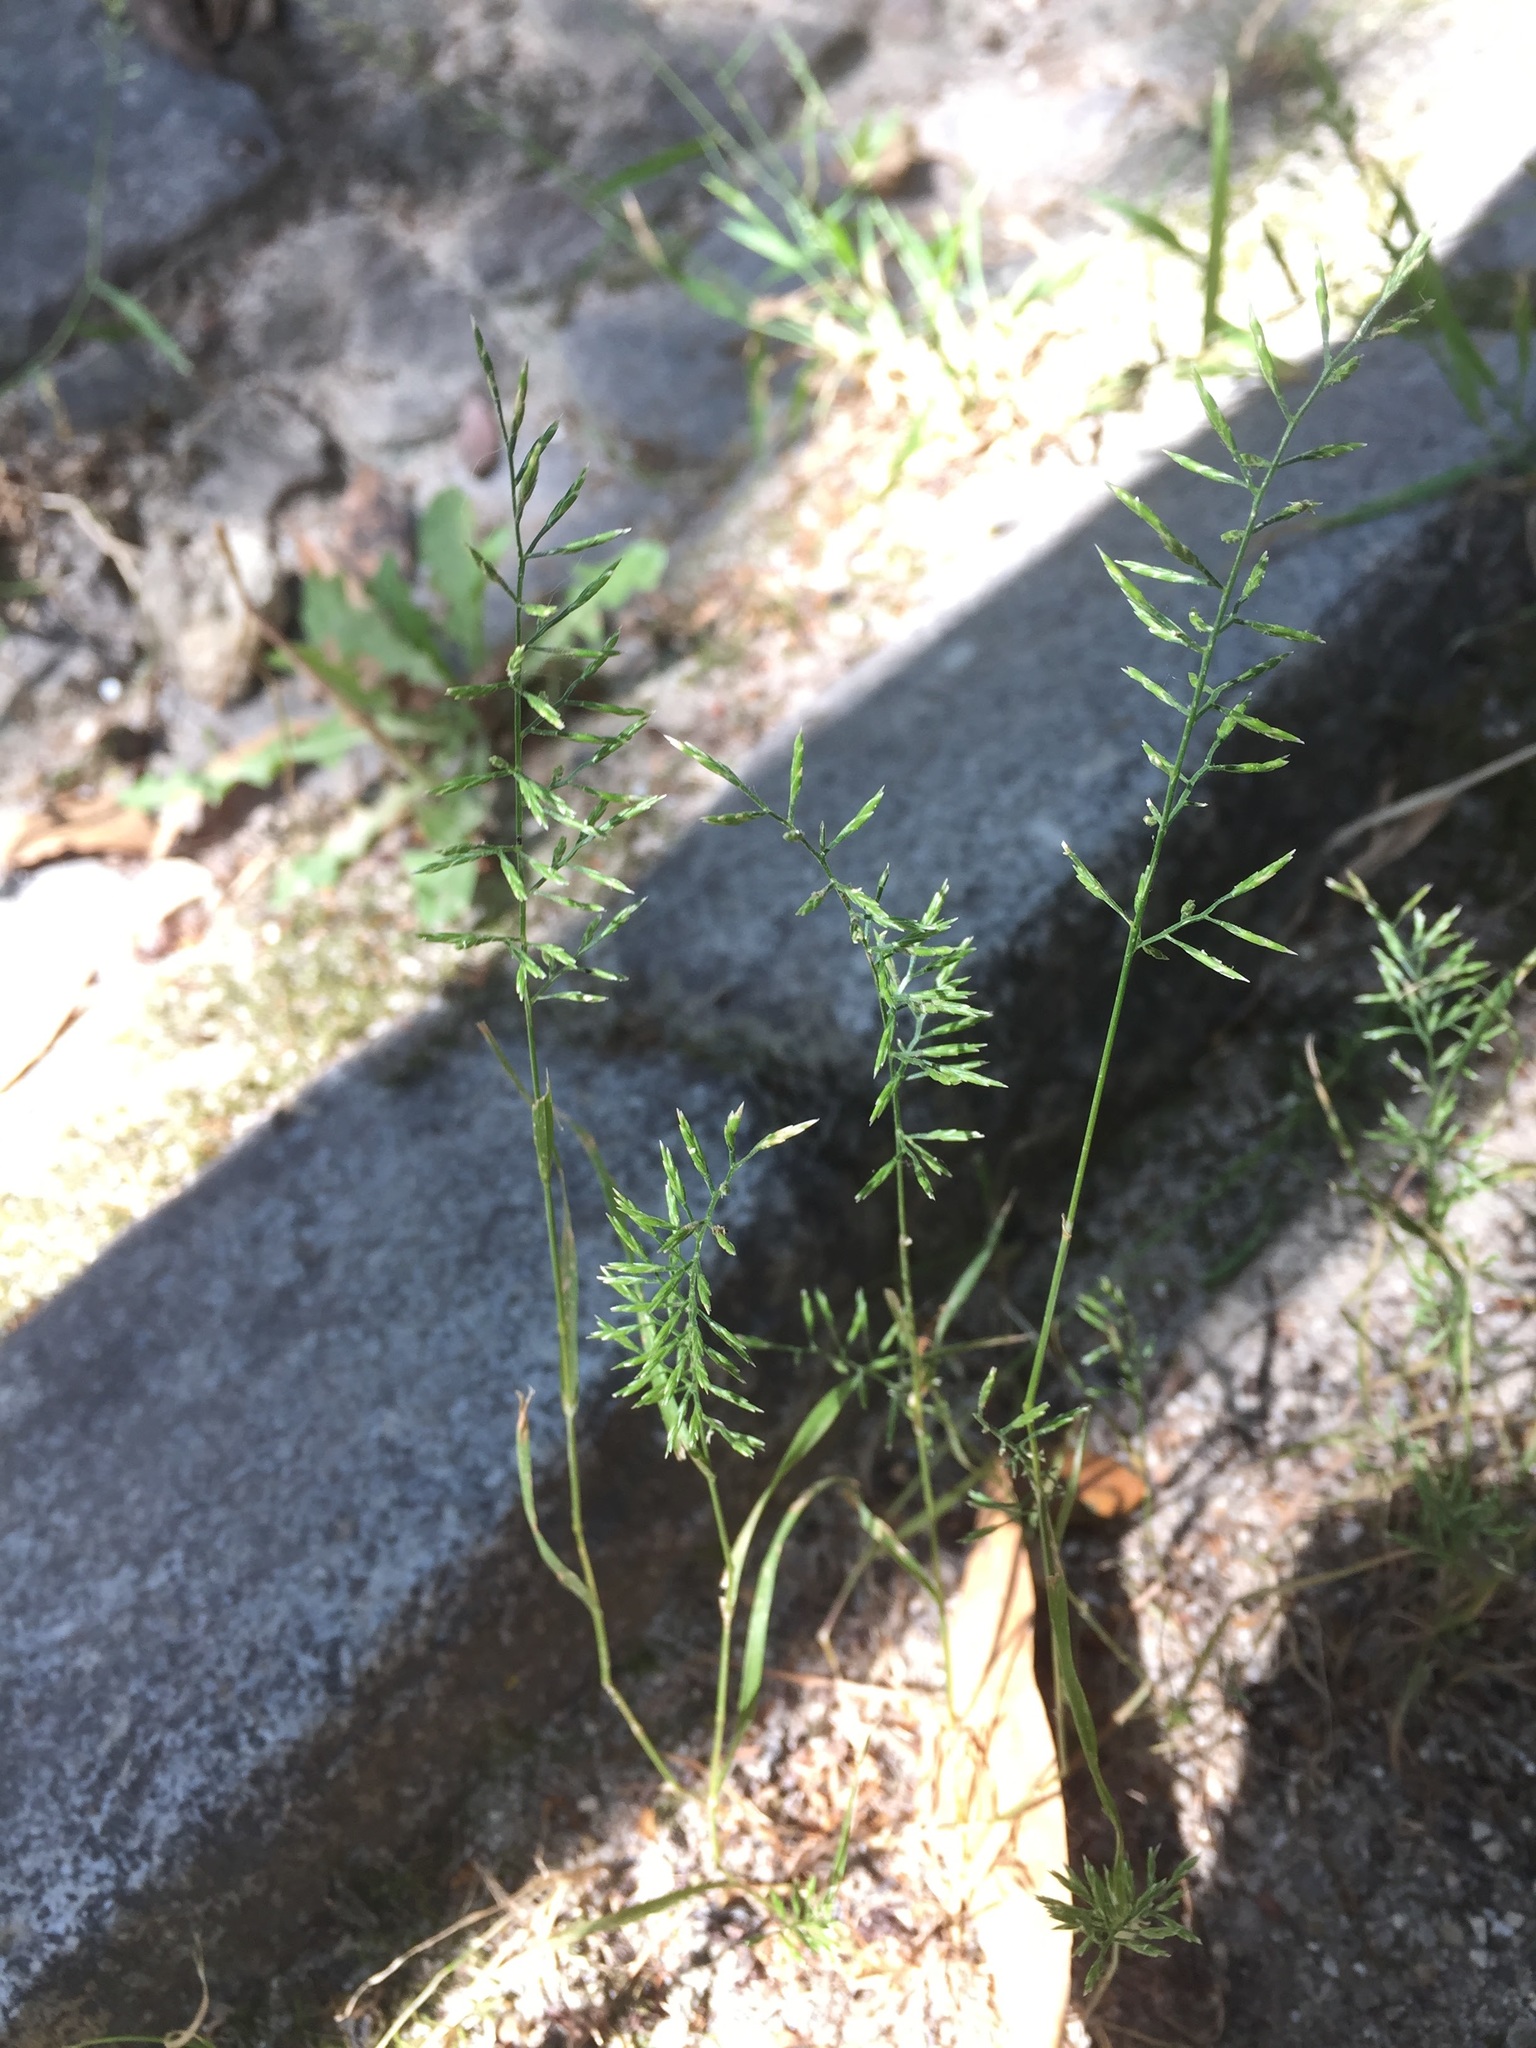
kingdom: Plantae
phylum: Tracheophyta
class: Liliopsida
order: Poales
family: Poaceae
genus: Catapodium
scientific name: Catapodium rigidum
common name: Fern-grass
